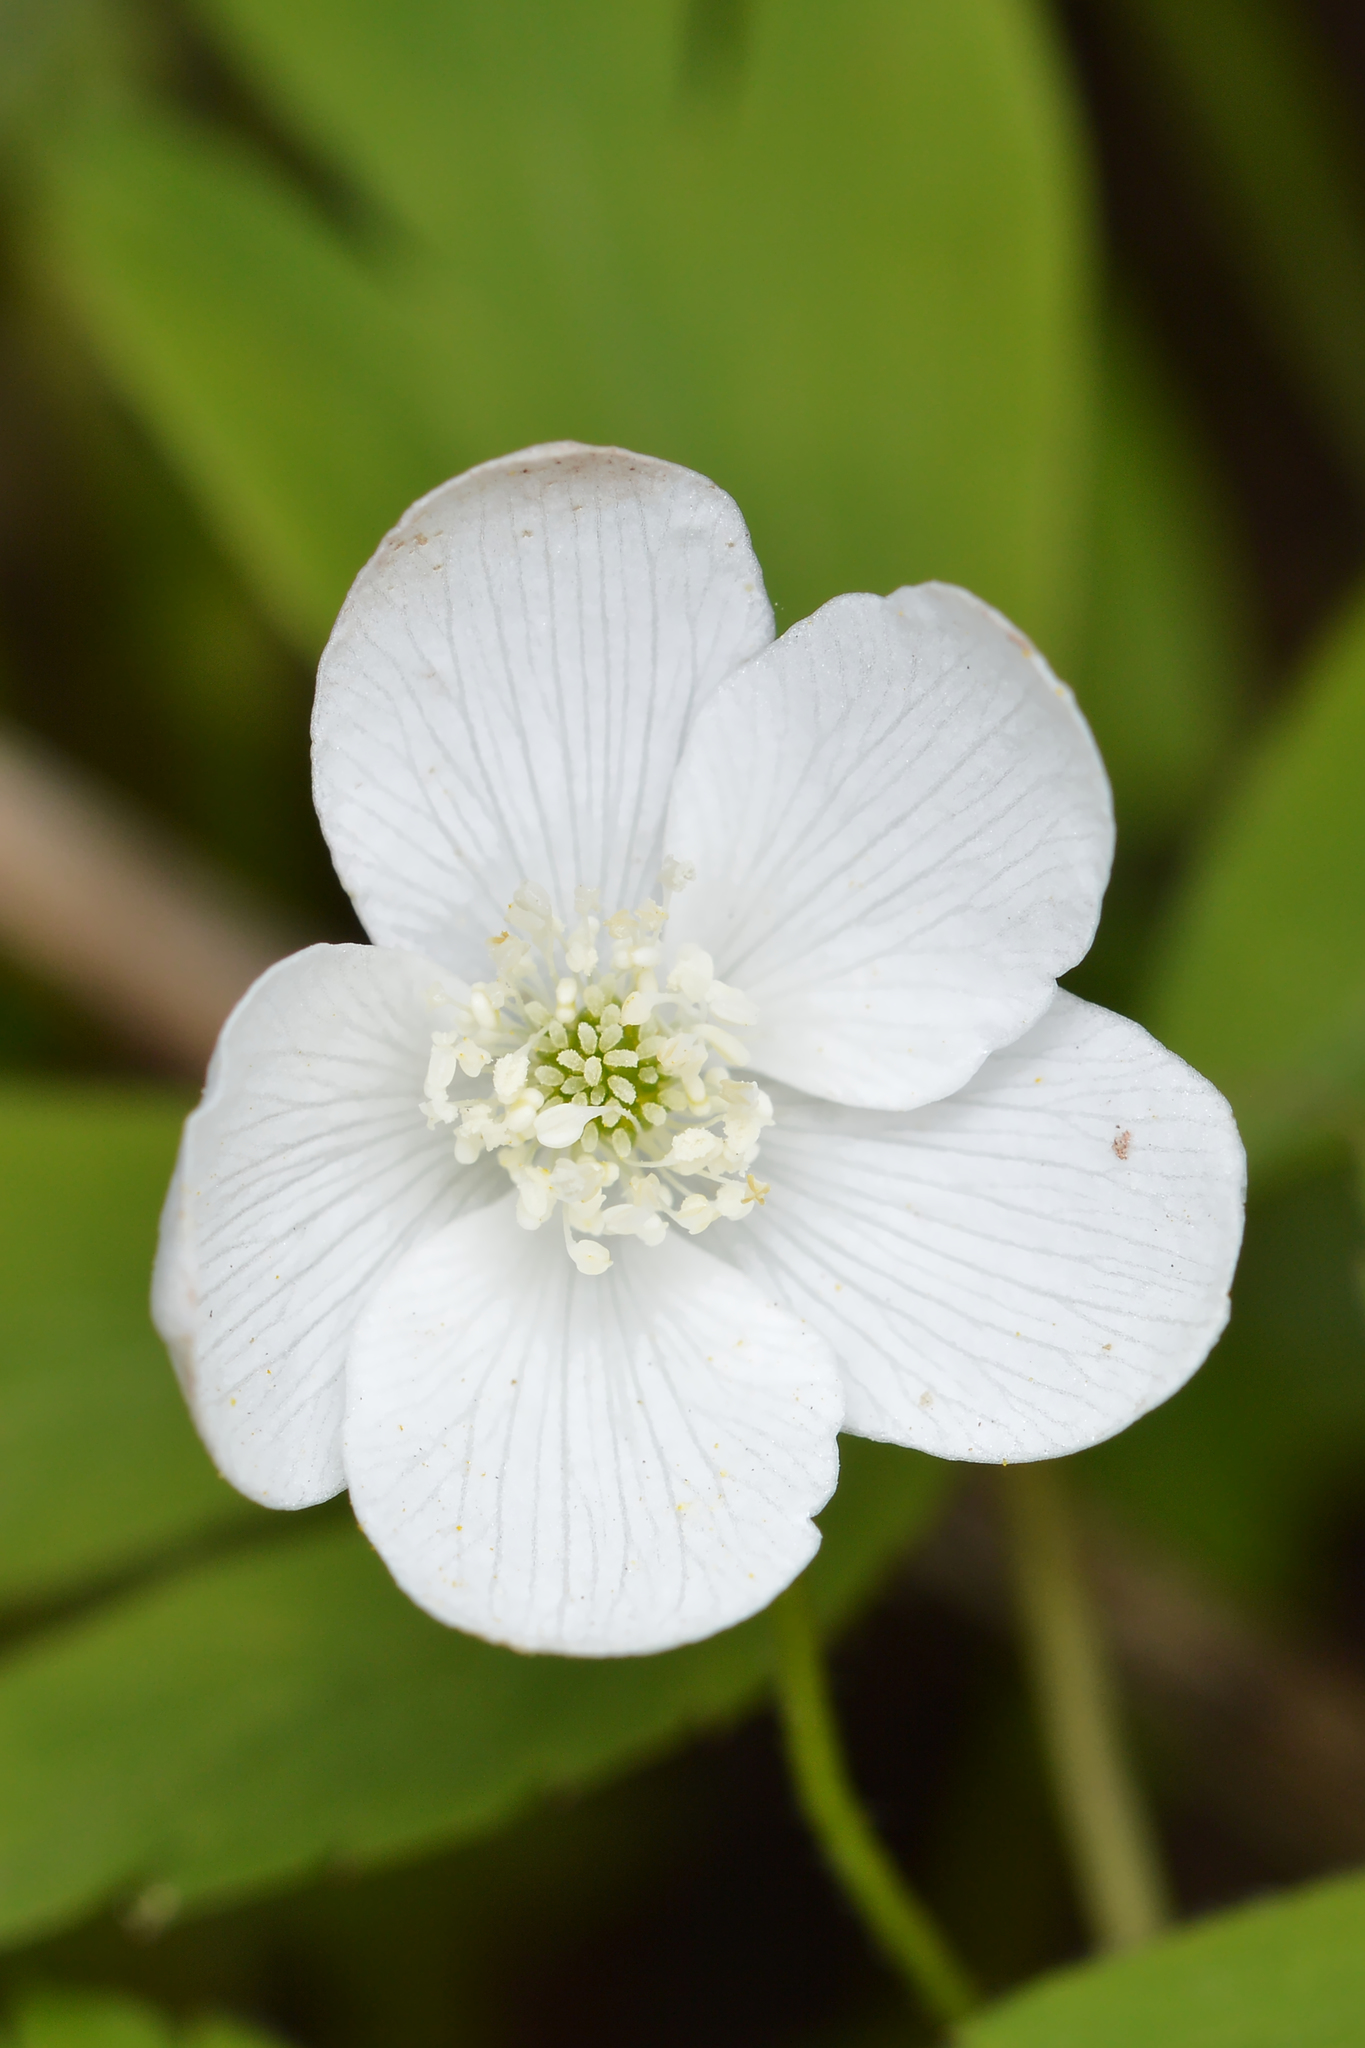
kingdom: Plantae
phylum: Tracheophyta
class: Magnoliopsida
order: Ranunculales
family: Ranunculaceae
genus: Anemone
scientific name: Anemone quinquefolia
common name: Wood anemone
